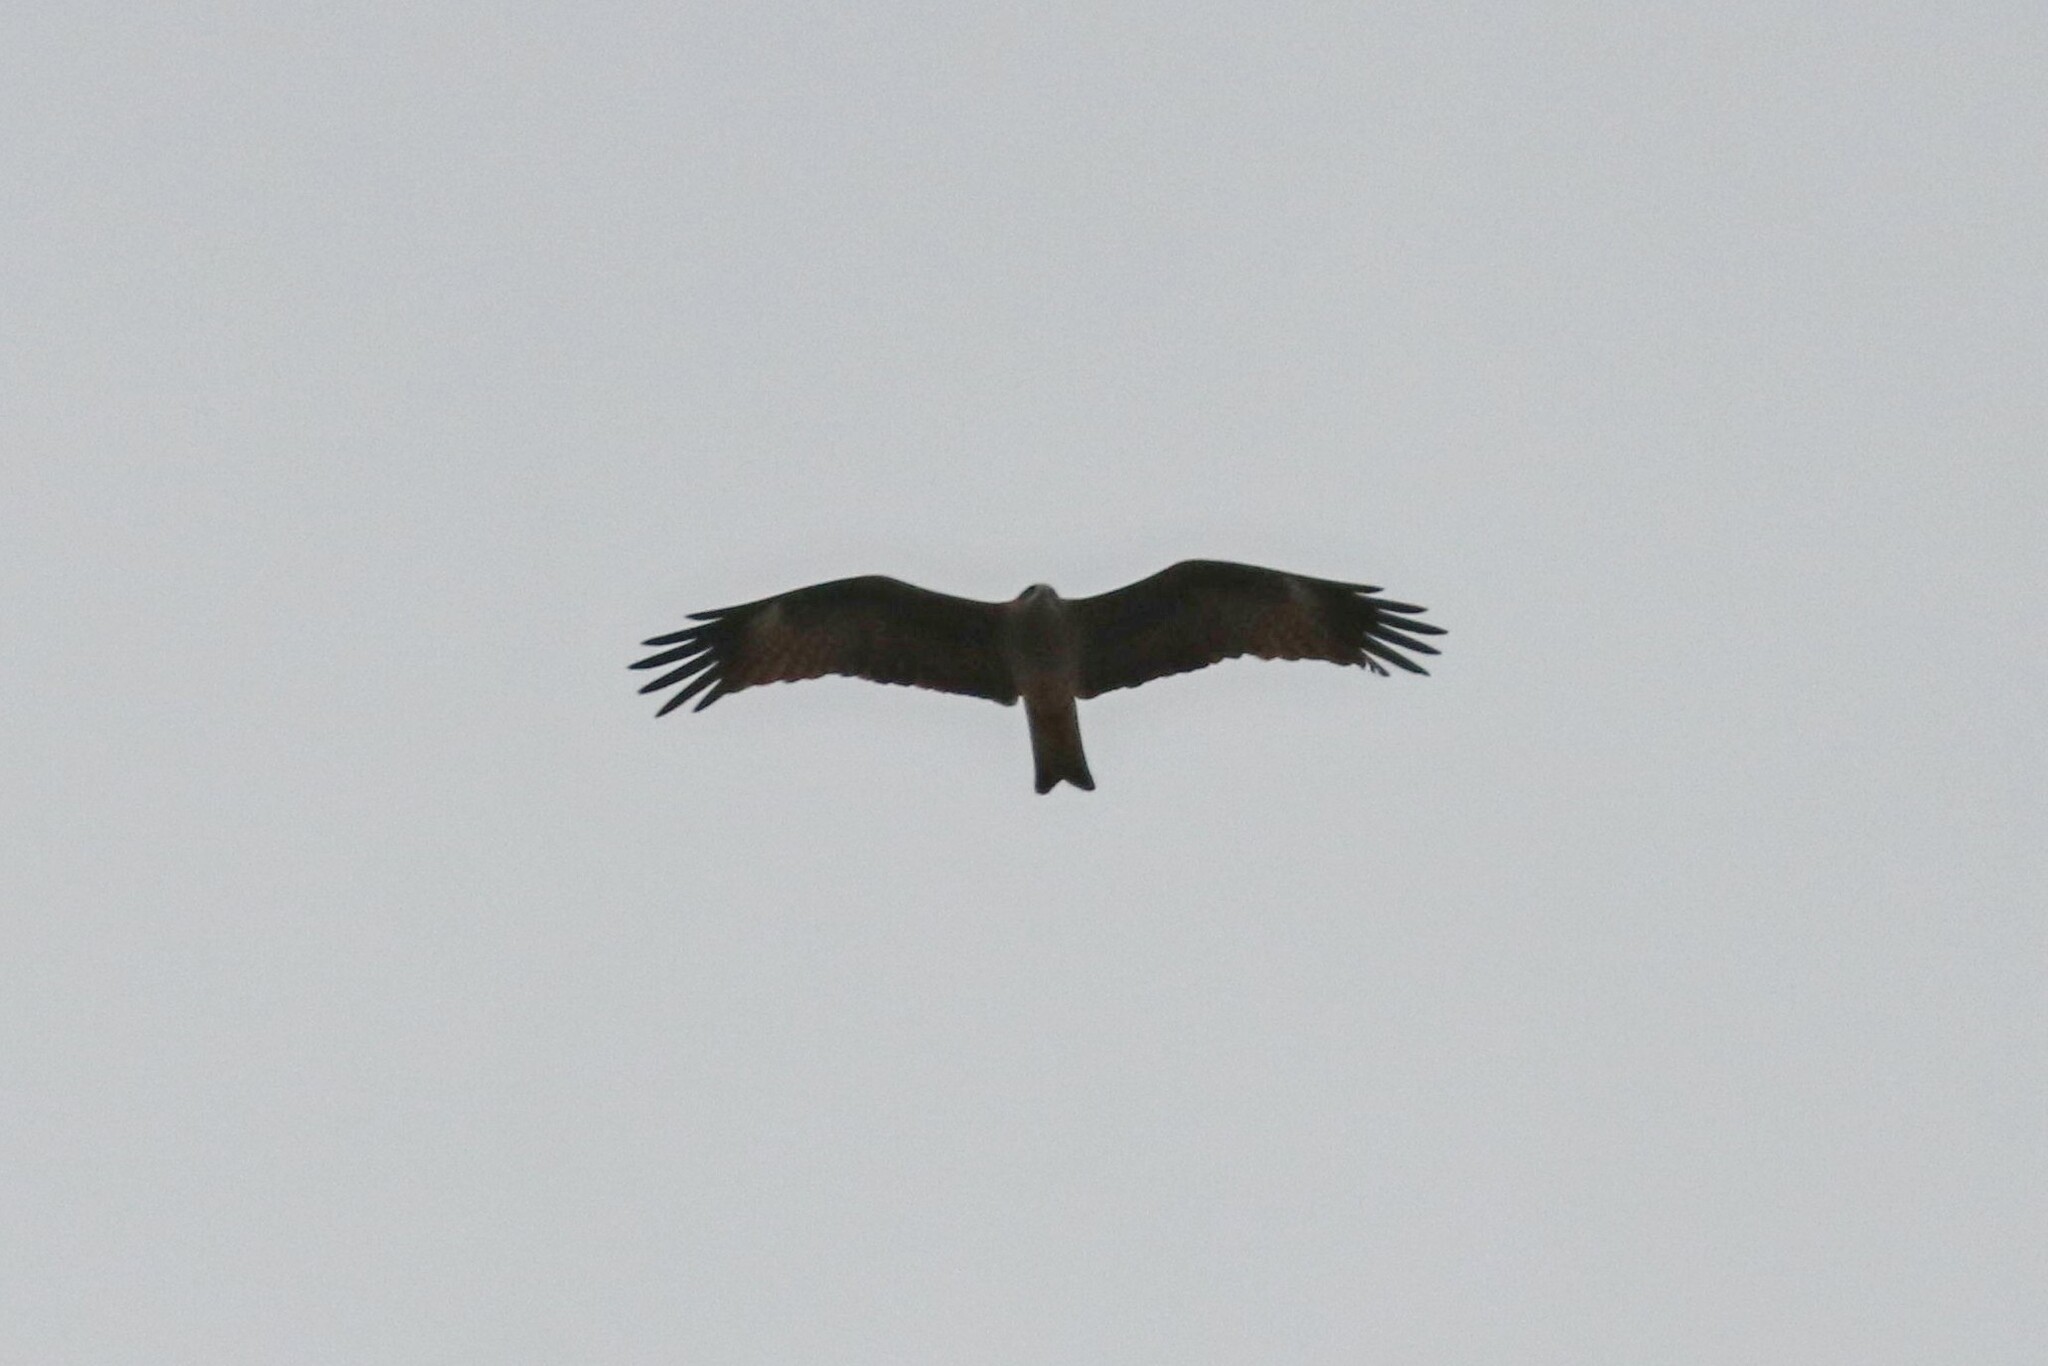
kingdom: Animalia
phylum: Chordata
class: Aves
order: Accipitriformes
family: Accipitridae
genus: Milvus
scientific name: Milvus migrans
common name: Black kite
